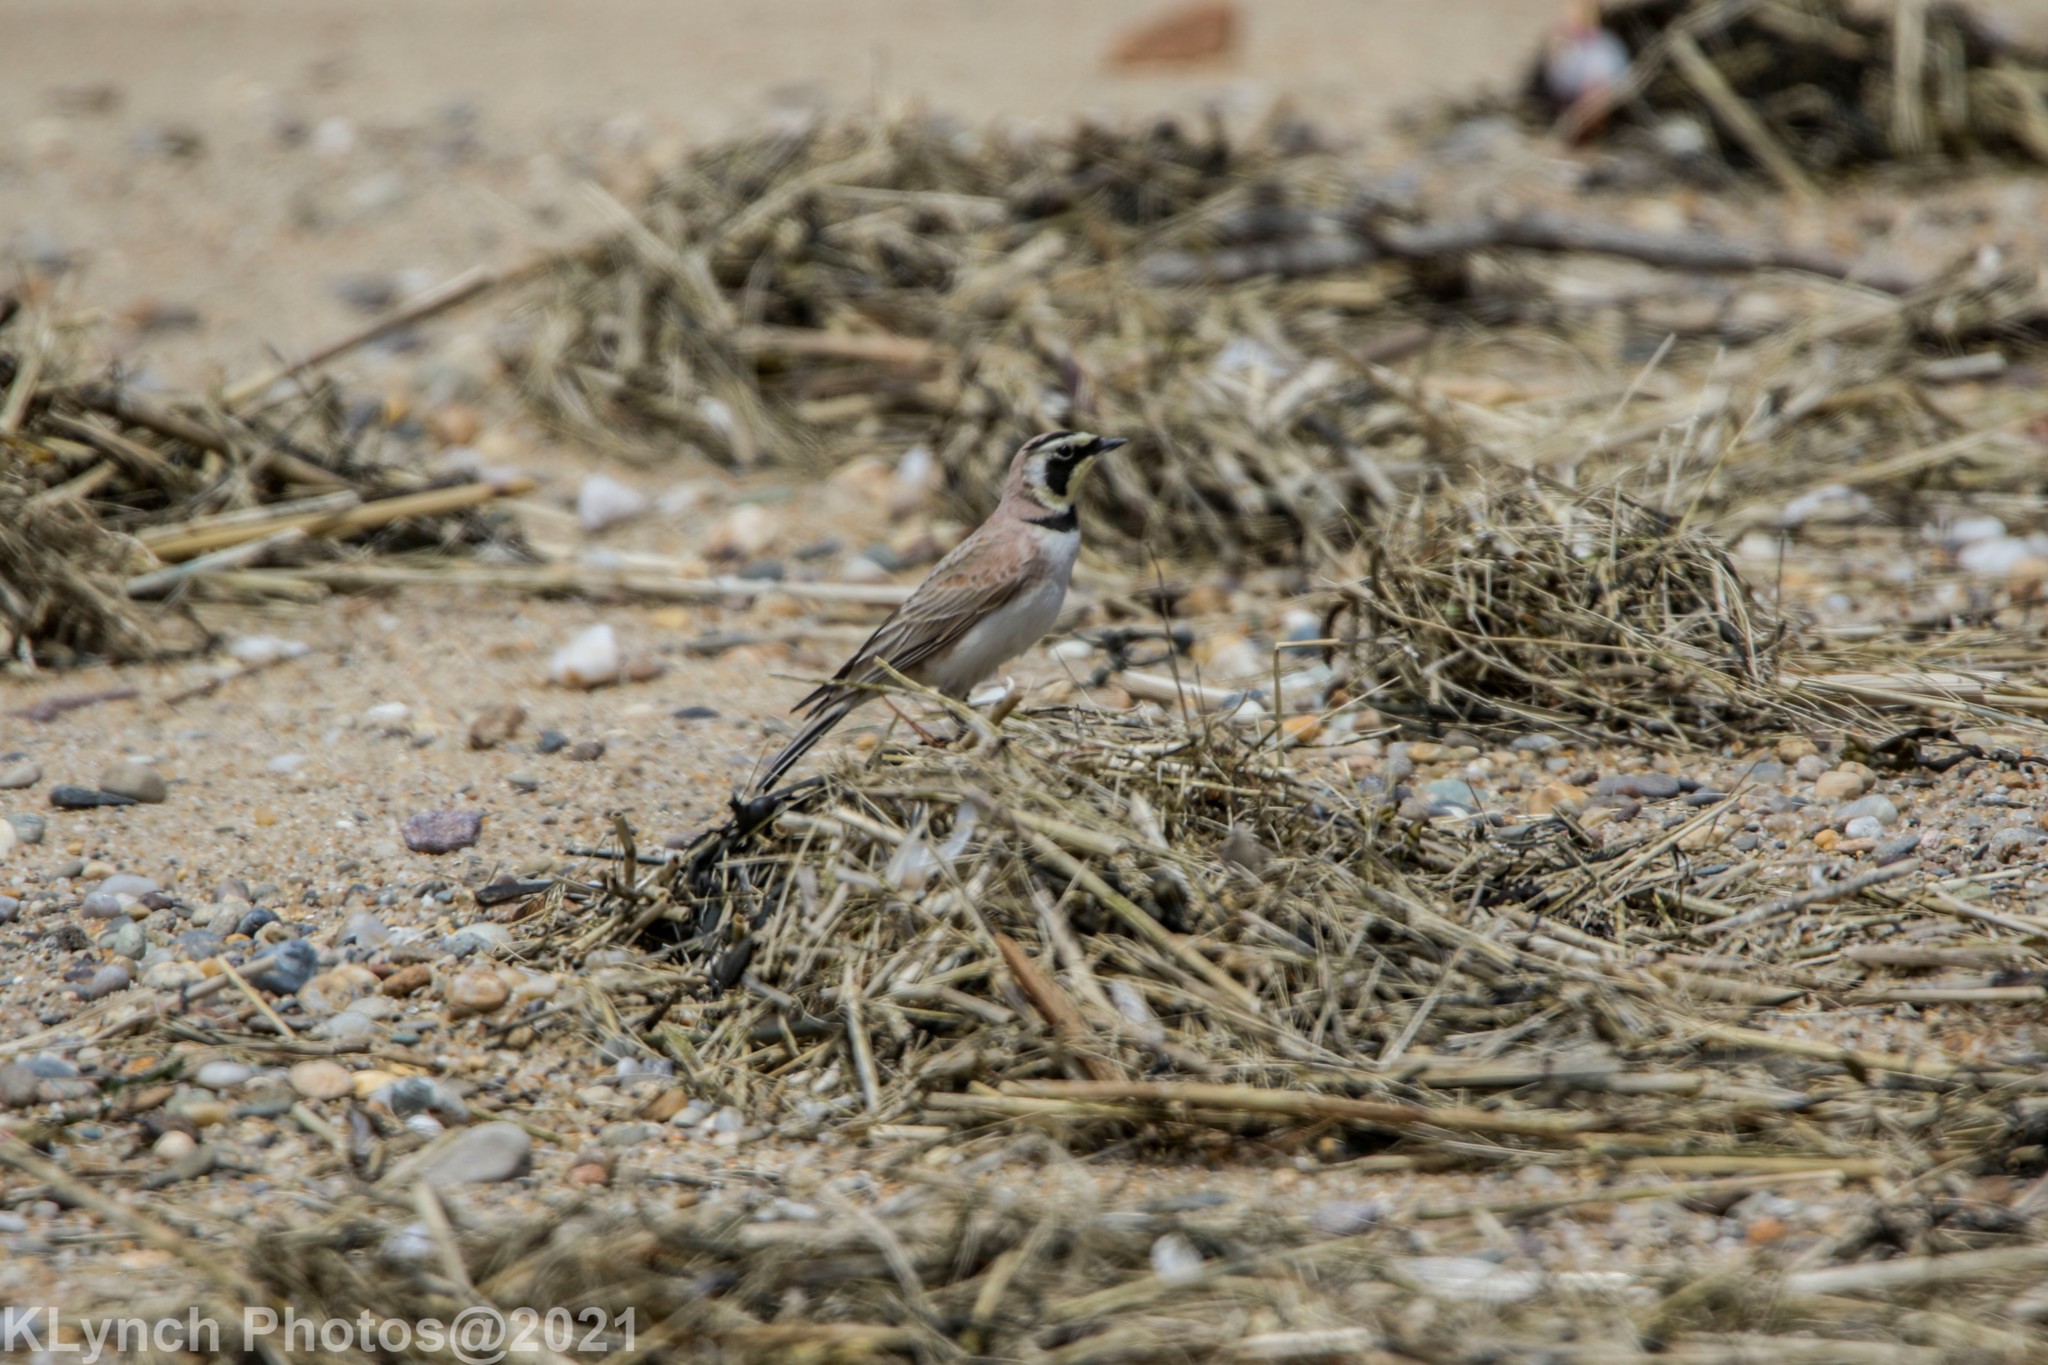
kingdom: Animalia
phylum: Chordata
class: Aves
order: Passeriformes
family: Alaudidae
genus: Eremophila
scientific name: Eremophila alpestris
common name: Horned lark
